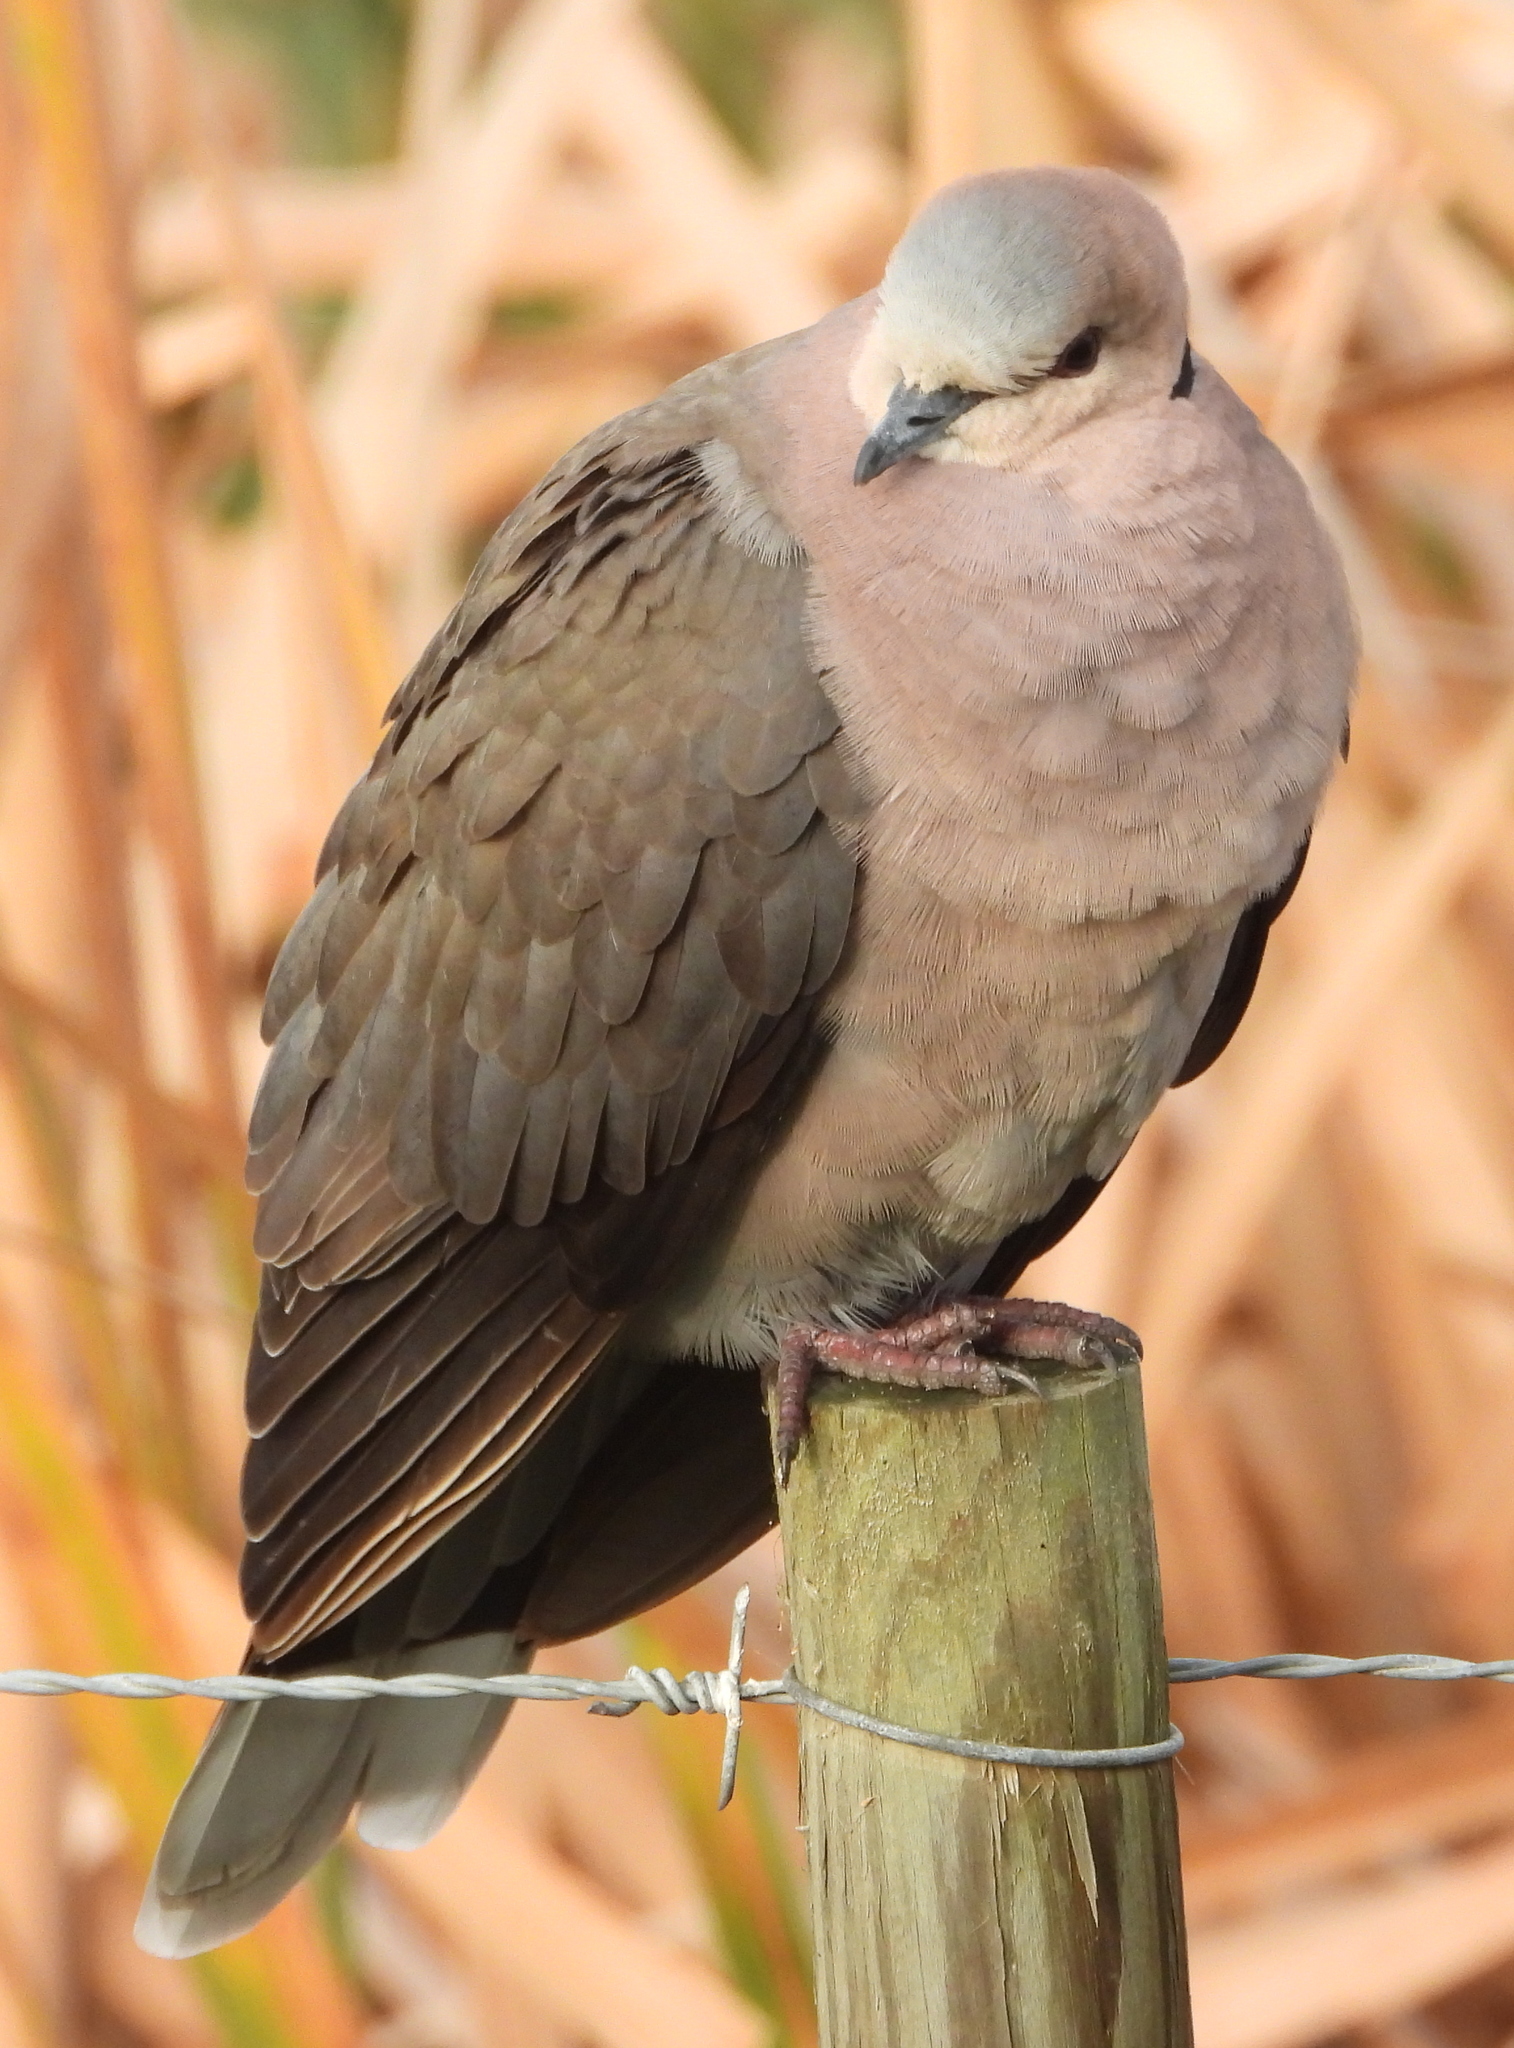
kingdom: Animalia
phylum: Chordata
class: Aves
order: Columbiformes
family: Columbidae
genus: Streptopelia
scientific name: Streptopelia semitorquata
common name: Red-eyed dove
